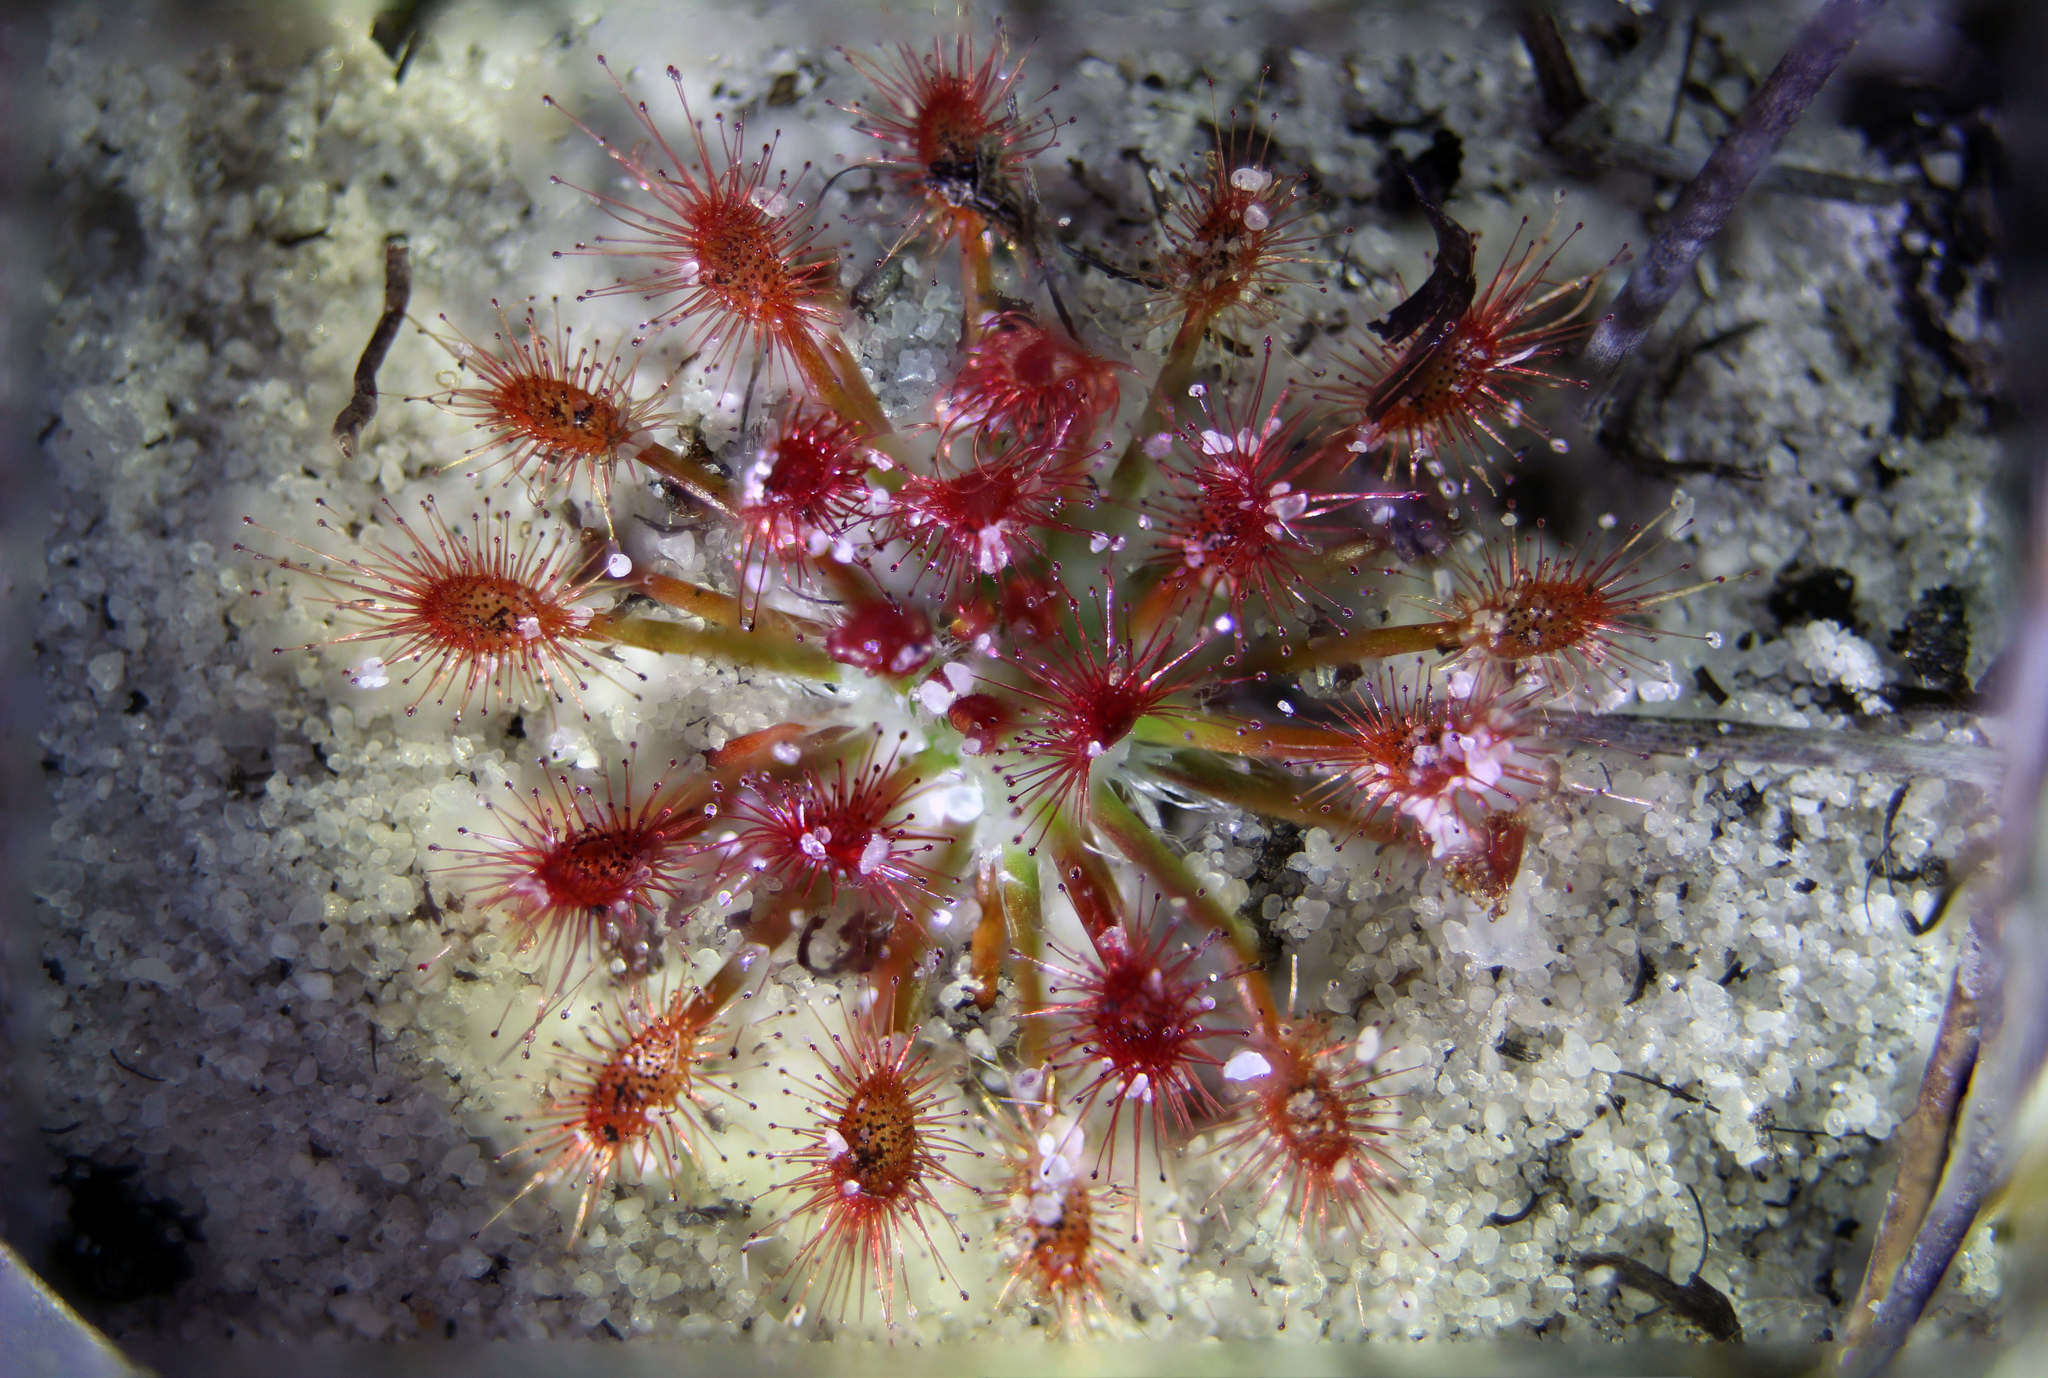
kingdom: Plantae
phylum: Tracheophyta
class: Magnoliopsida
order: Caryophyllales
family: Droseraceae
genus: Drosera
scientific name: Drosera paleacea
